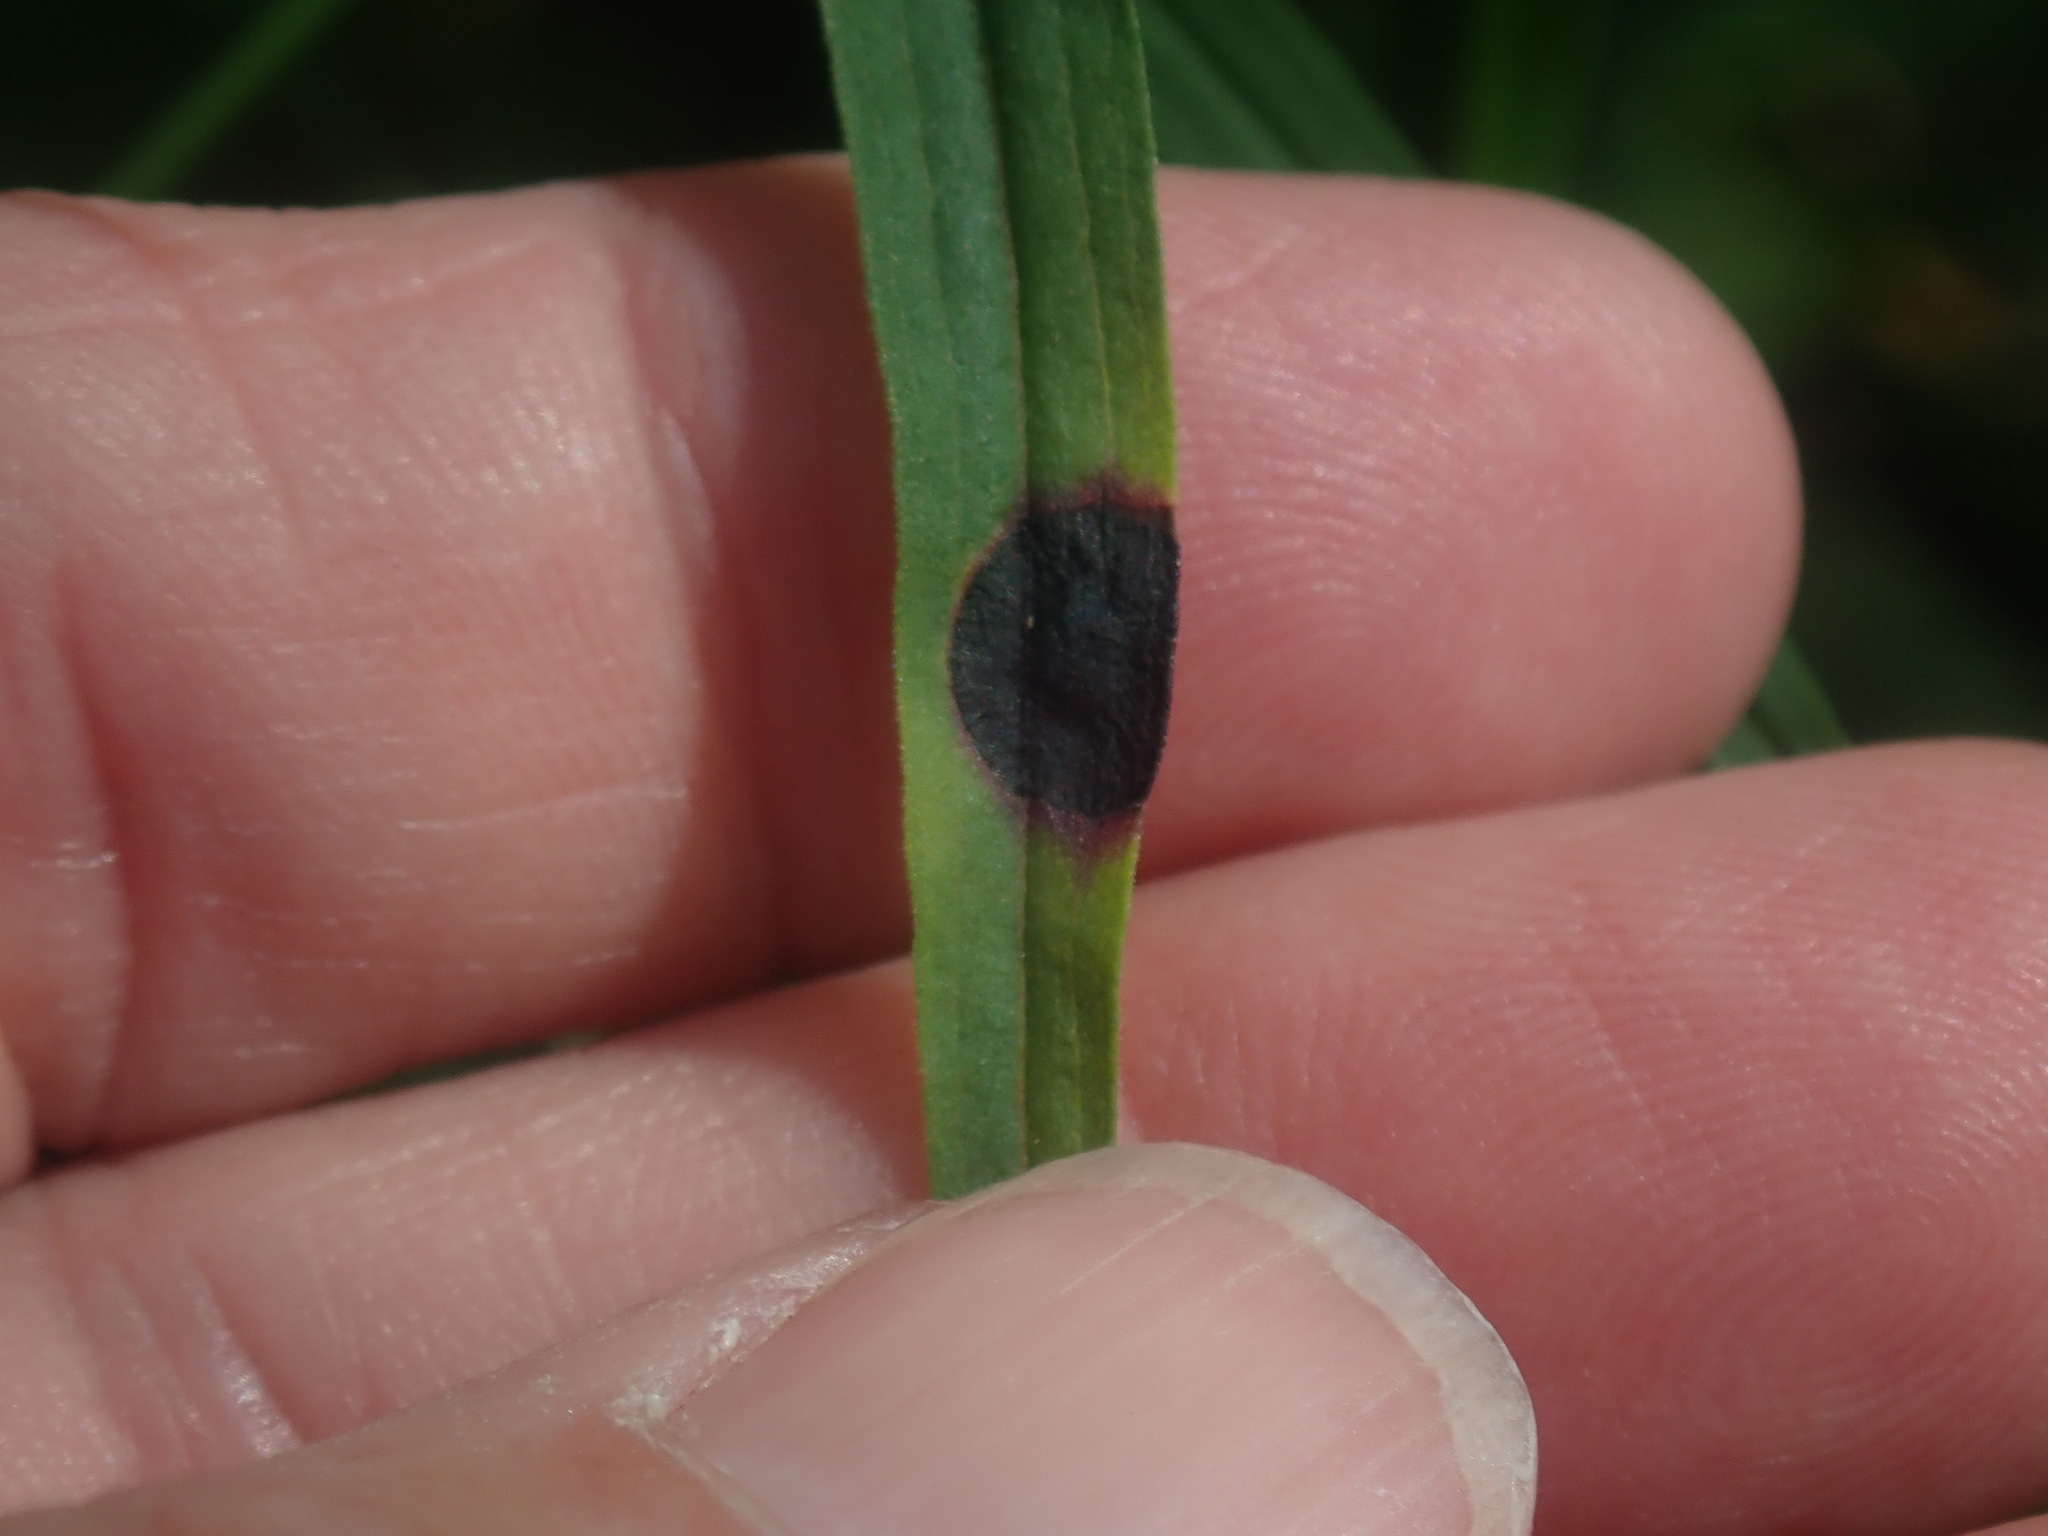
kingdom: Animalia
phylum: Arthropoda
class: Insecta
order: Diptera
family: Cecidomyiidae
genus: Asteromyia
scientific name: Asteromyia euthamiae
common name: Euthamia leaf gall midge
